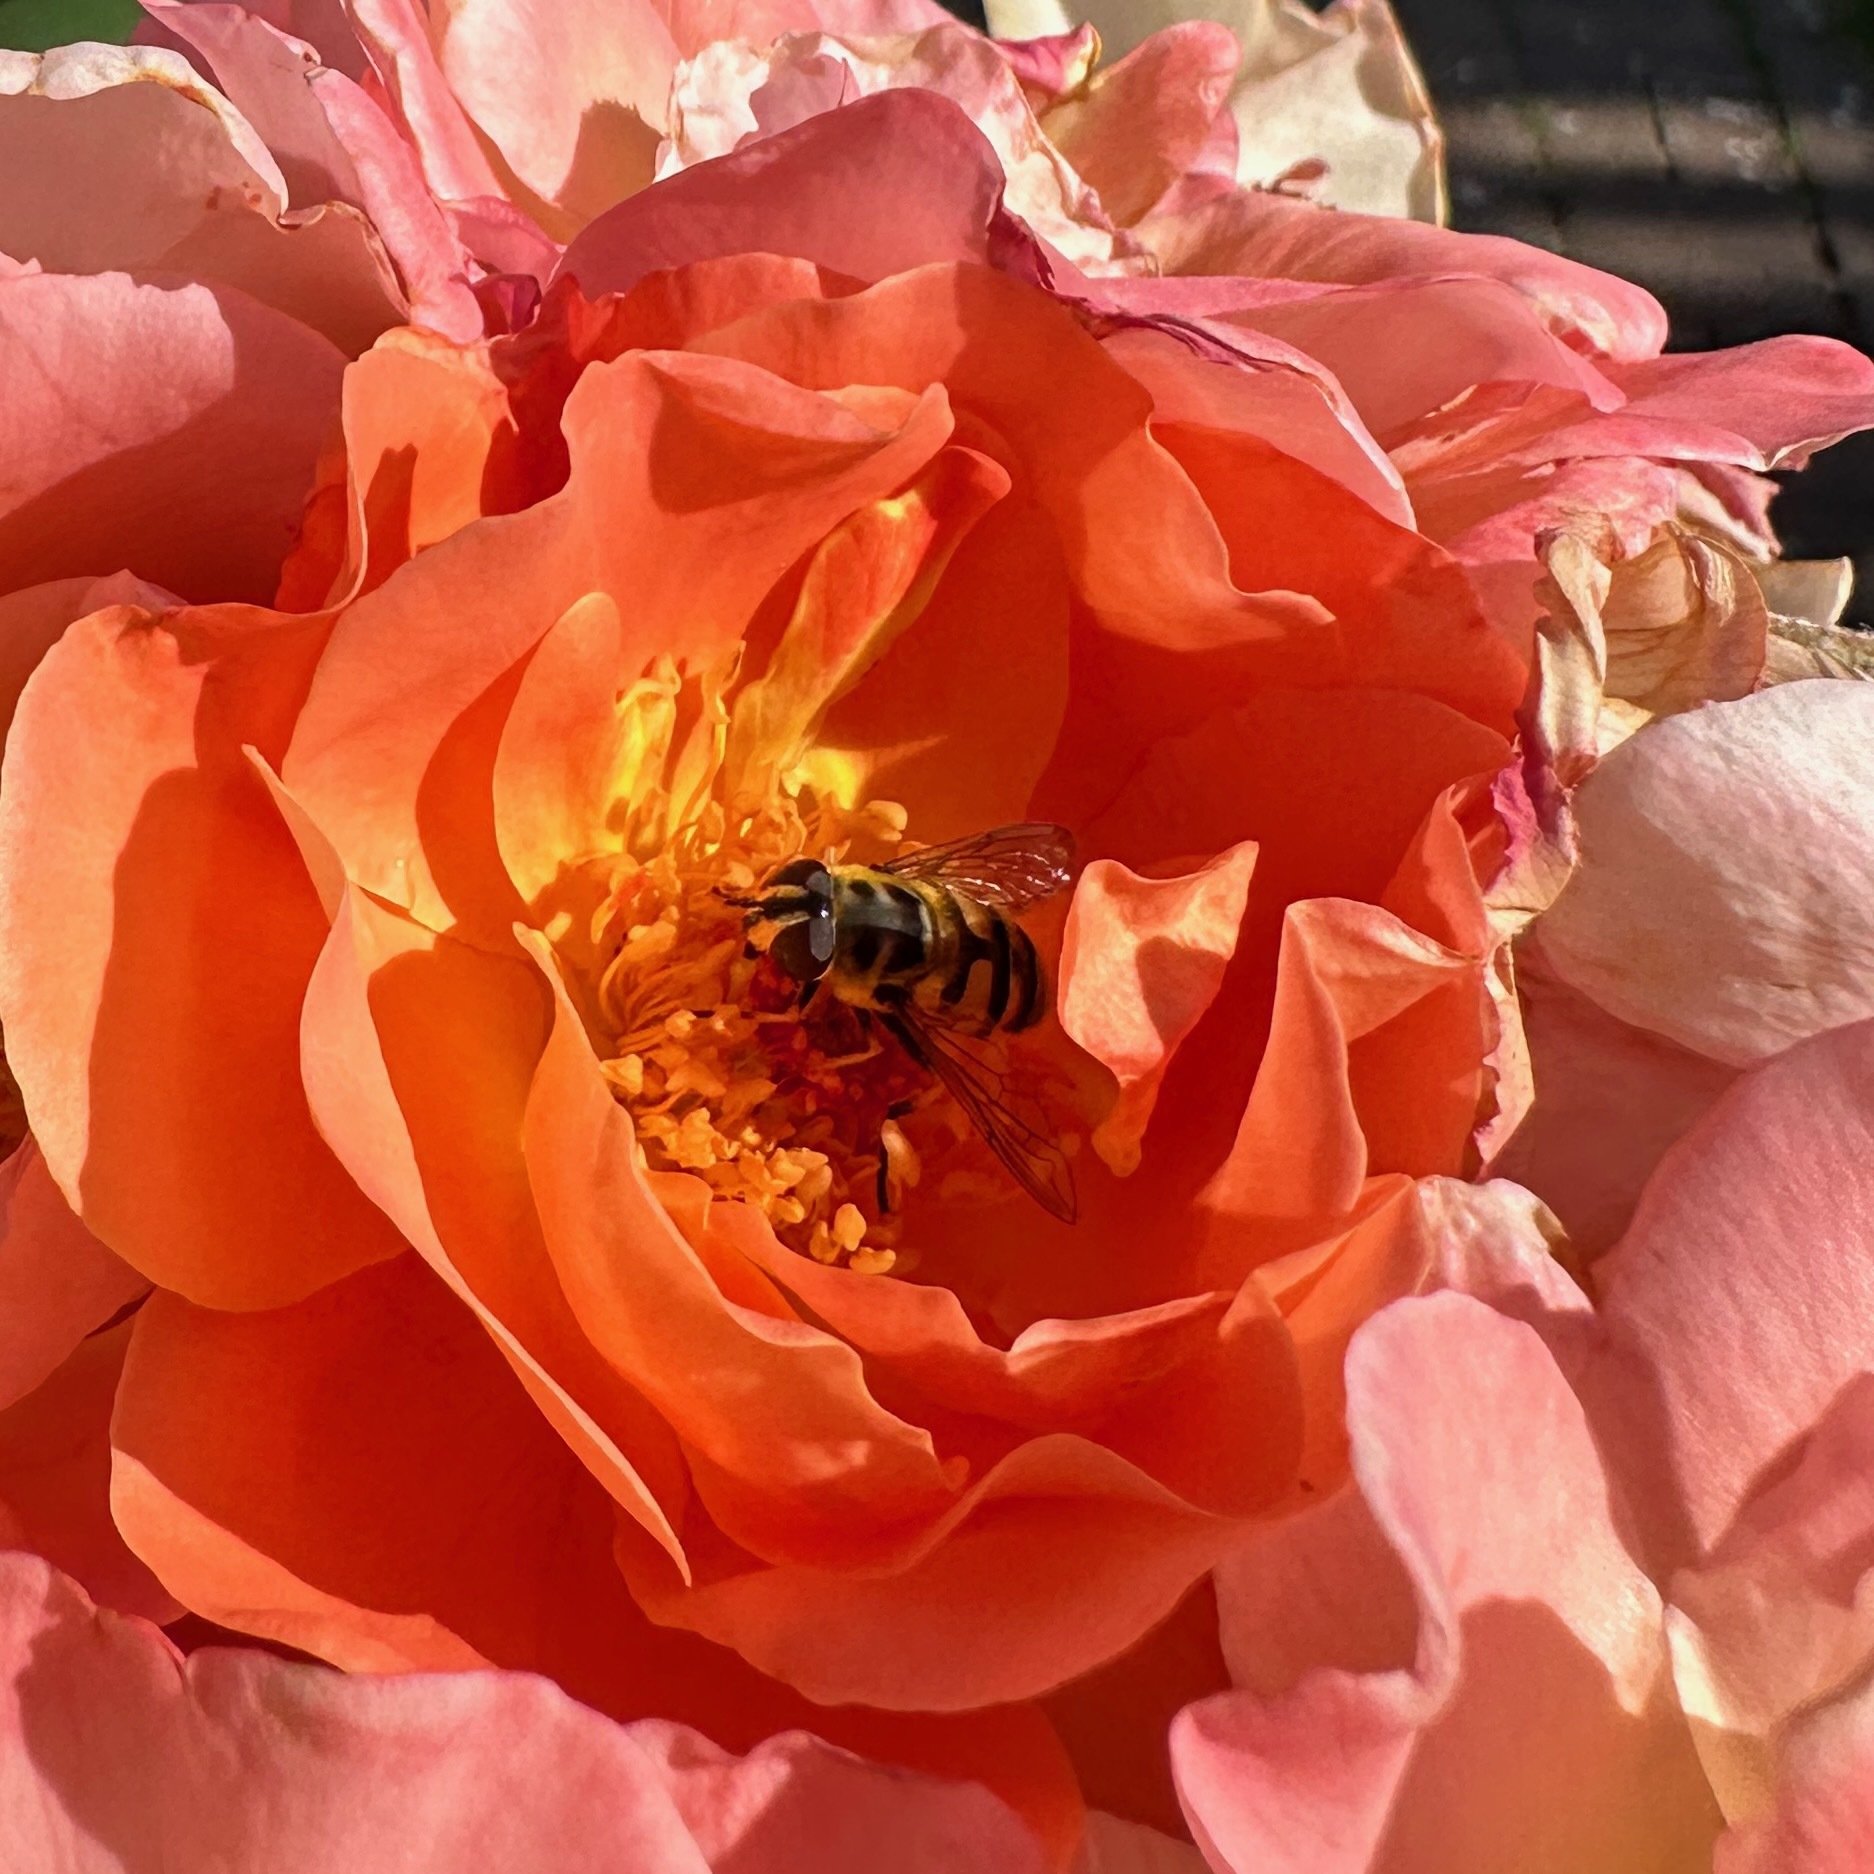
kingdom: Animalia
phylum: Arthropoda
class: Insecta
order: Diptera
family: Syrphidae
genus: Myathropa
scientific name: Myathropa florea
